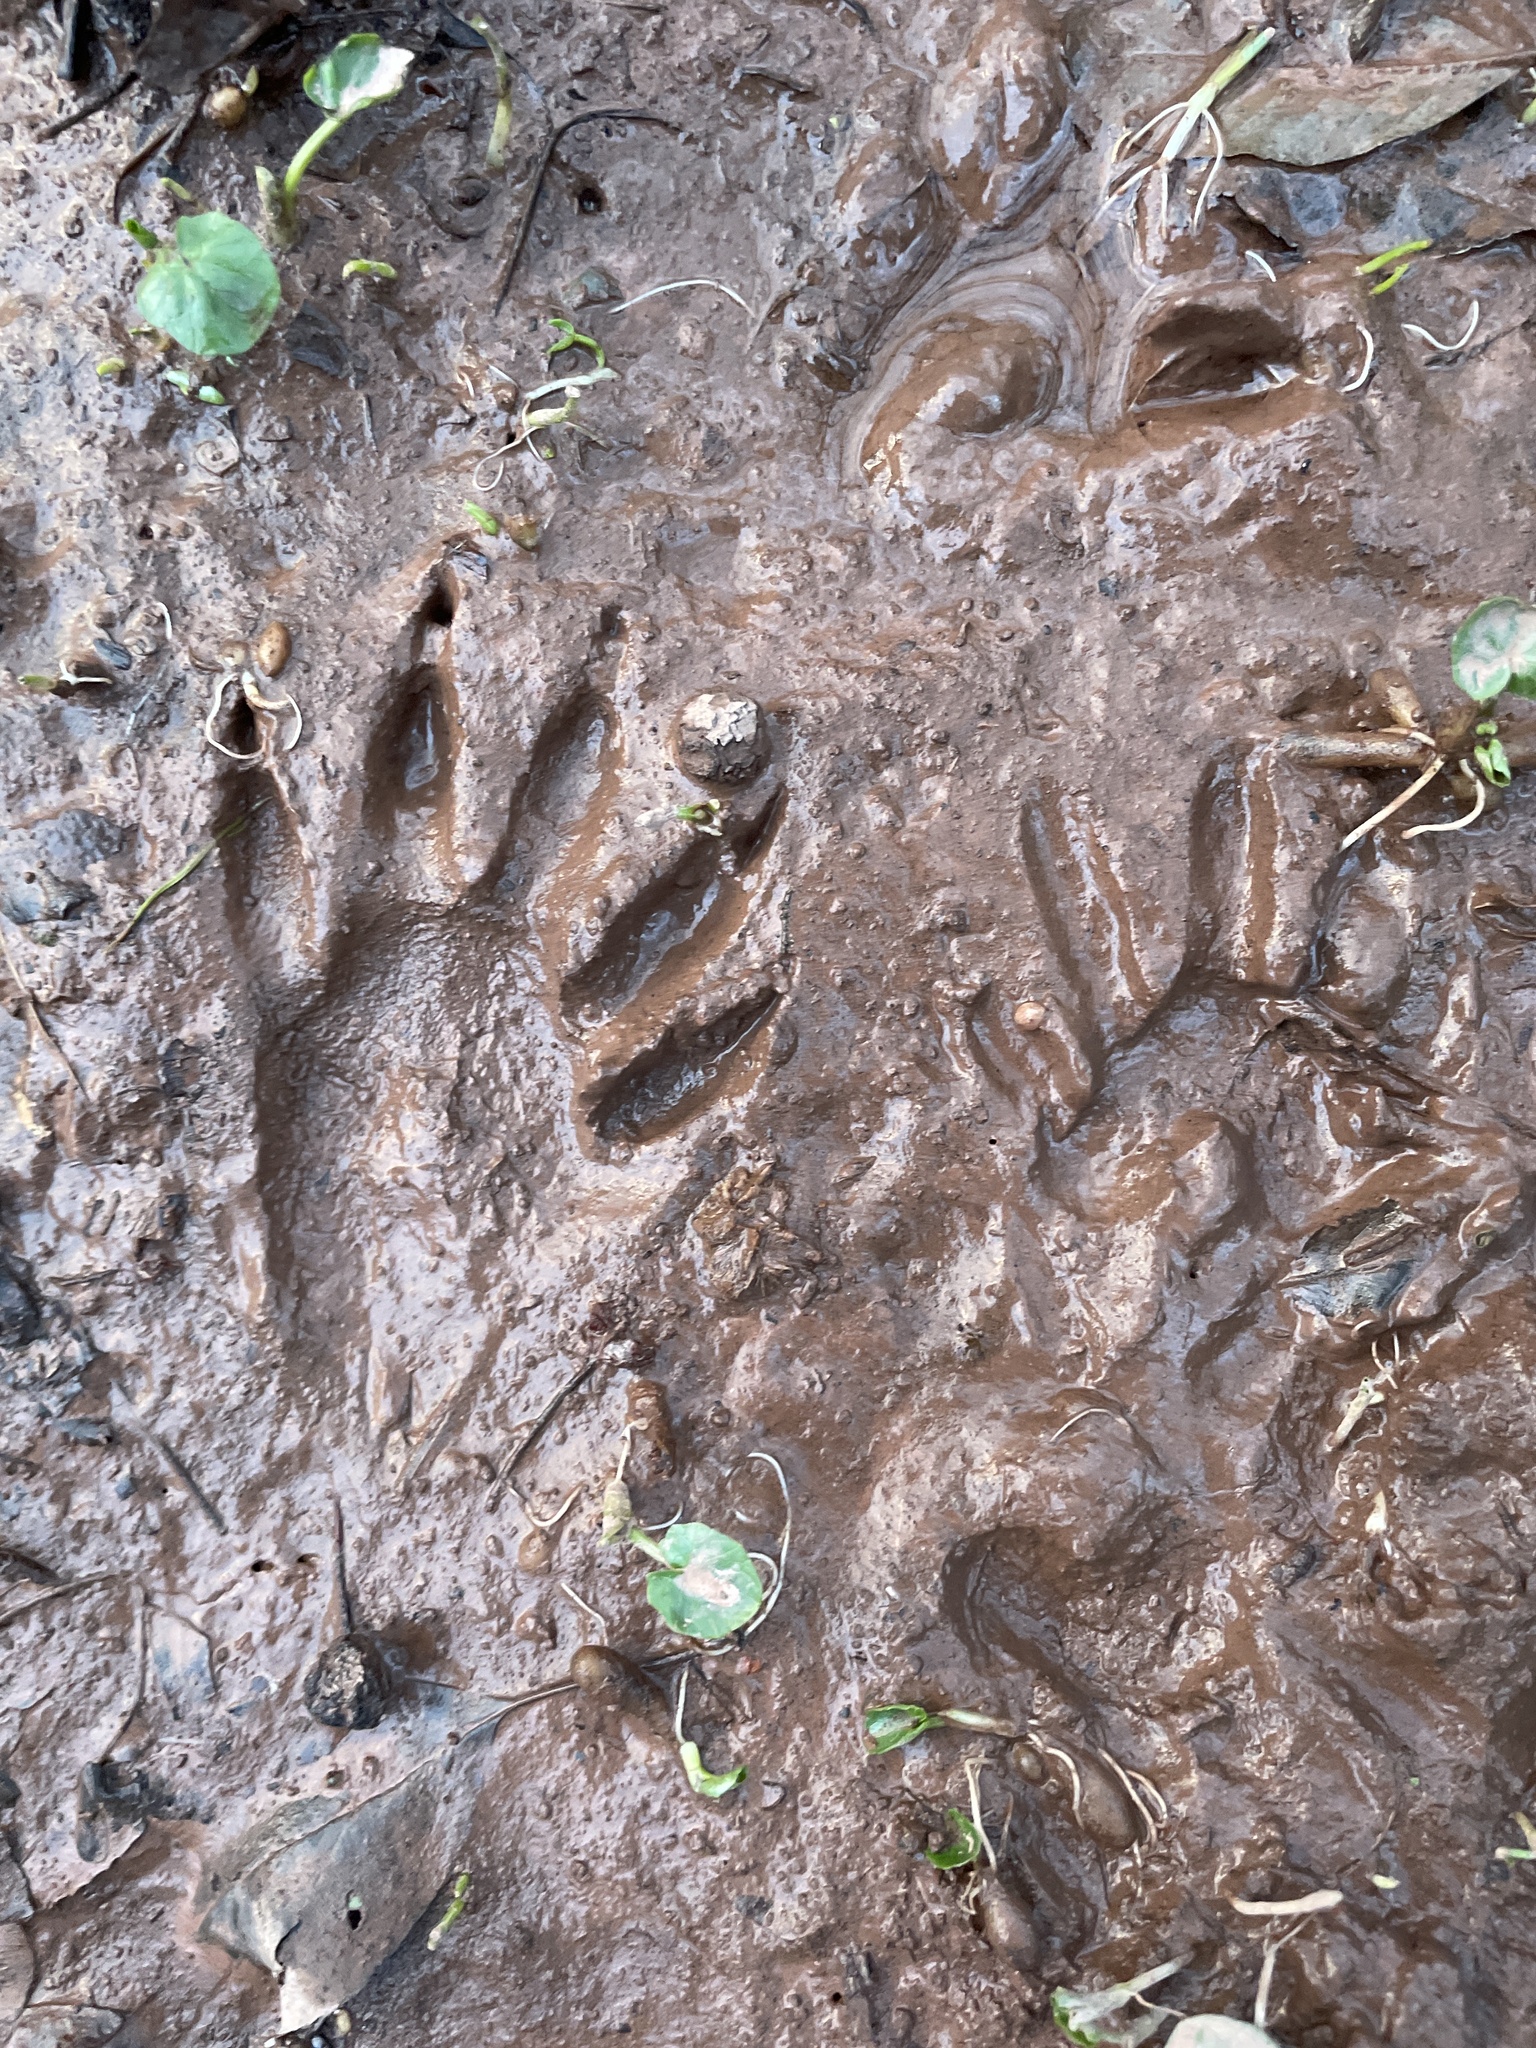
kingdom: Animalia
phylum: Chordata
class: Mammalia
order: Carnivora
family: Procyonidae
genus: Procyon
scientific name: Procyon lotor
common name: Raccoon
